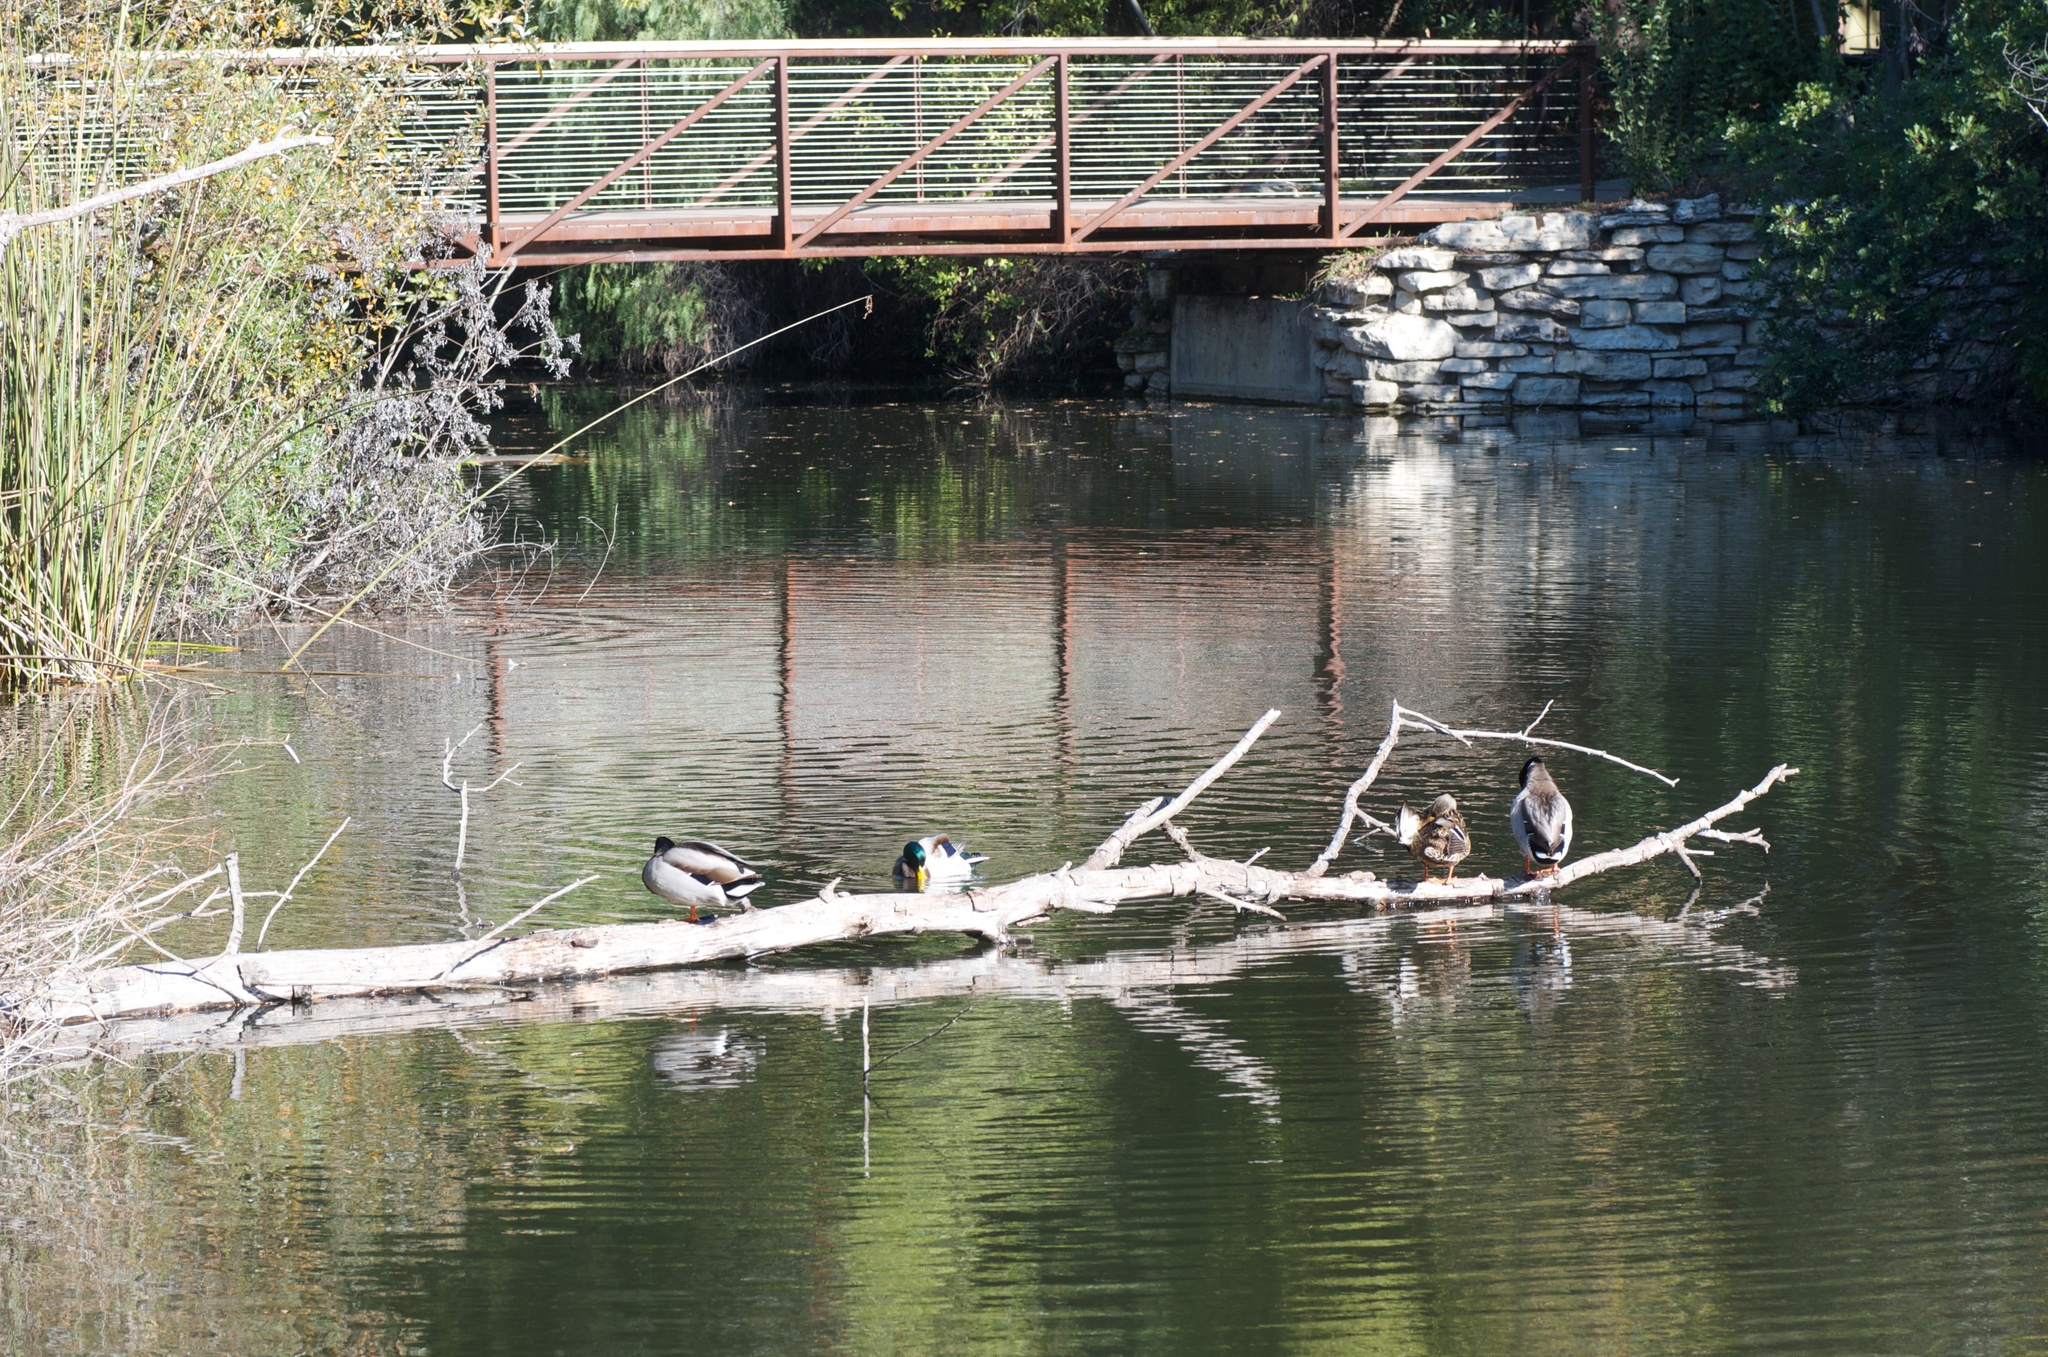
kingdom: Animalia
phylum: Chordata
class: Aves
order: Anseriformes
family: Anatidae
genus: Anas
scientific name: Anas platyrhynchos
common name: Mallard
